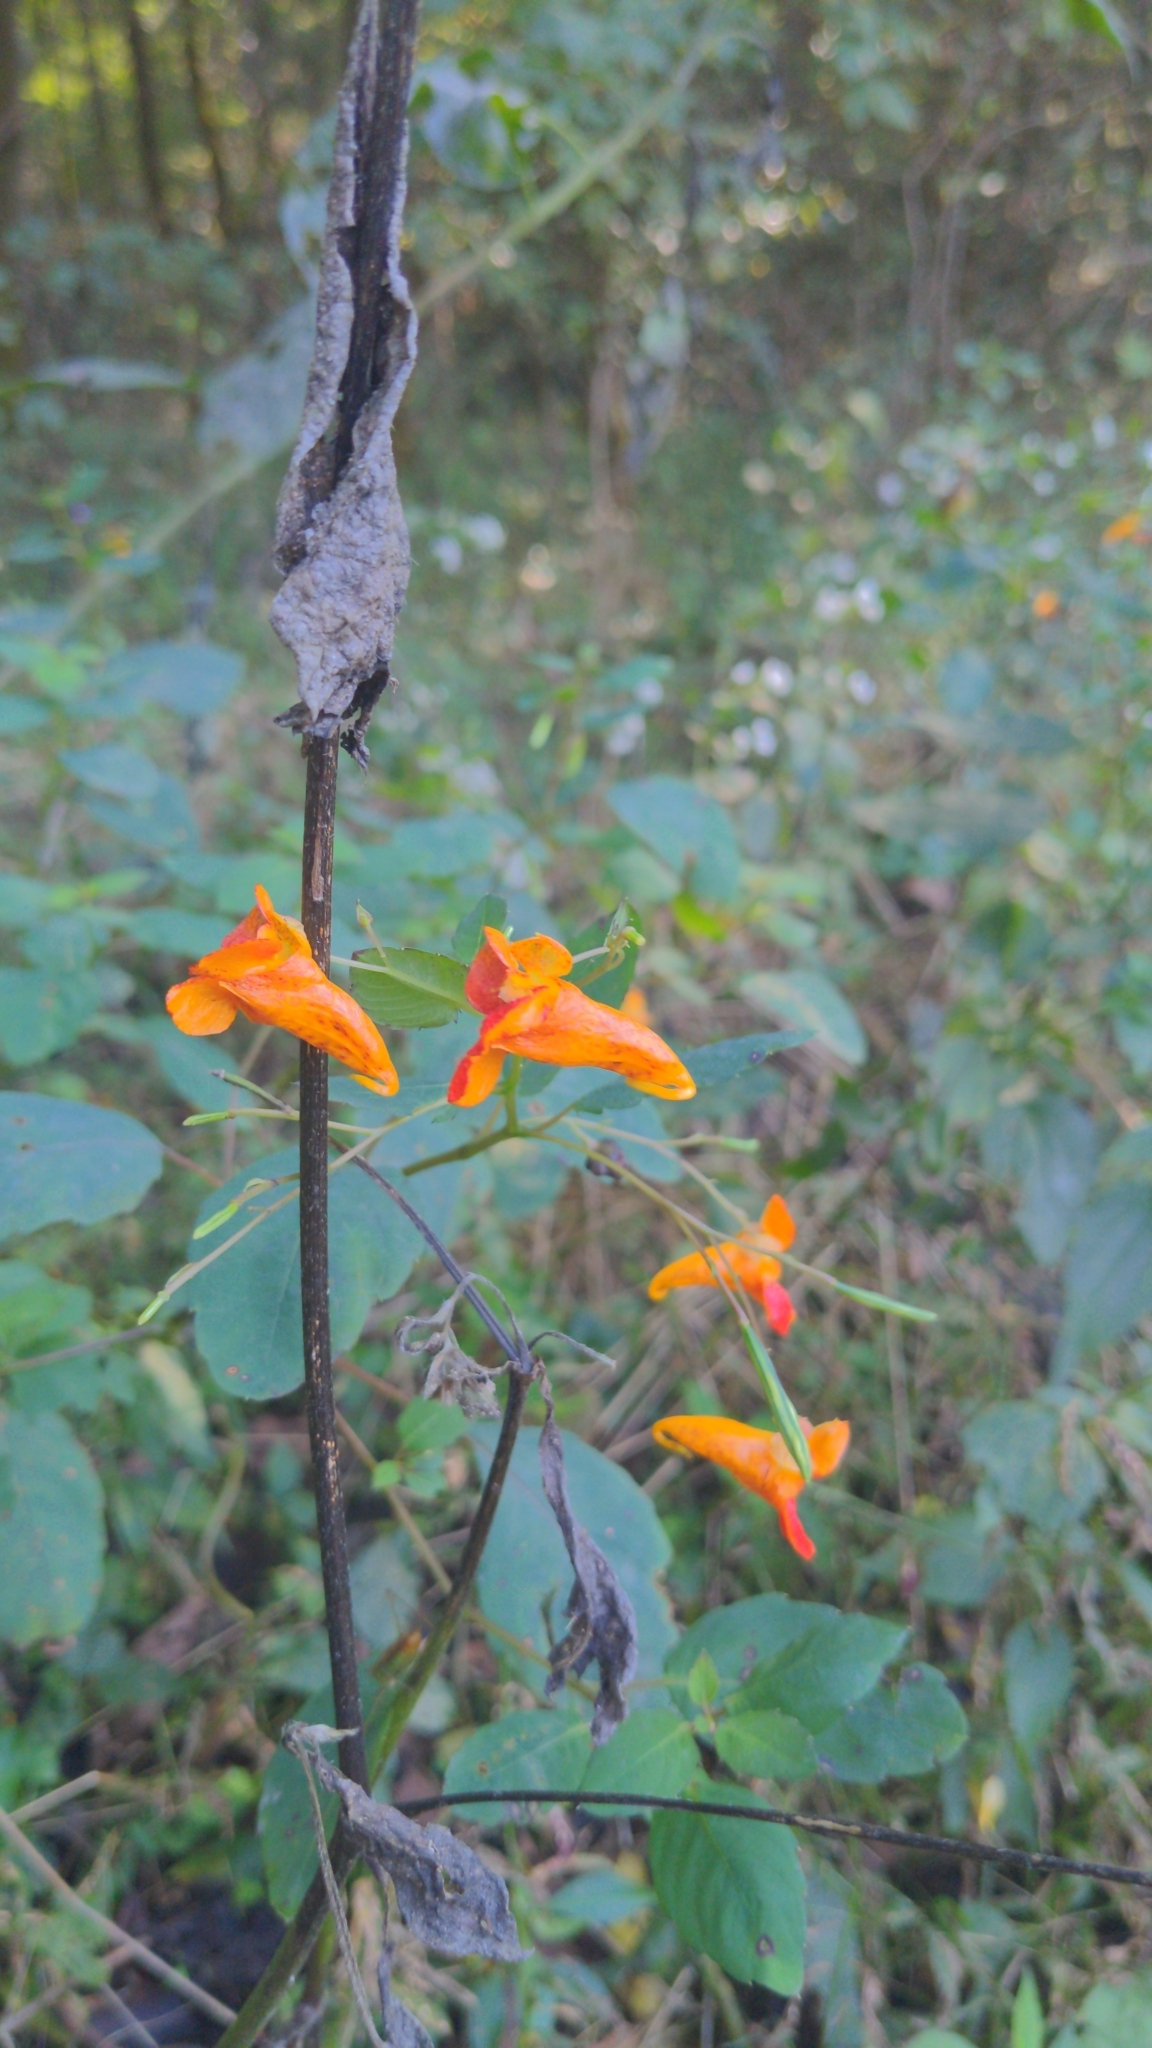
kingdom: Plantae
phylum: Tracheophyta
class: Magnoliopsida
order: Ericales
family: Balsaminaceae
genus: Impatiens
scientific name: Impatiens capensis
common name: Orange balsam
